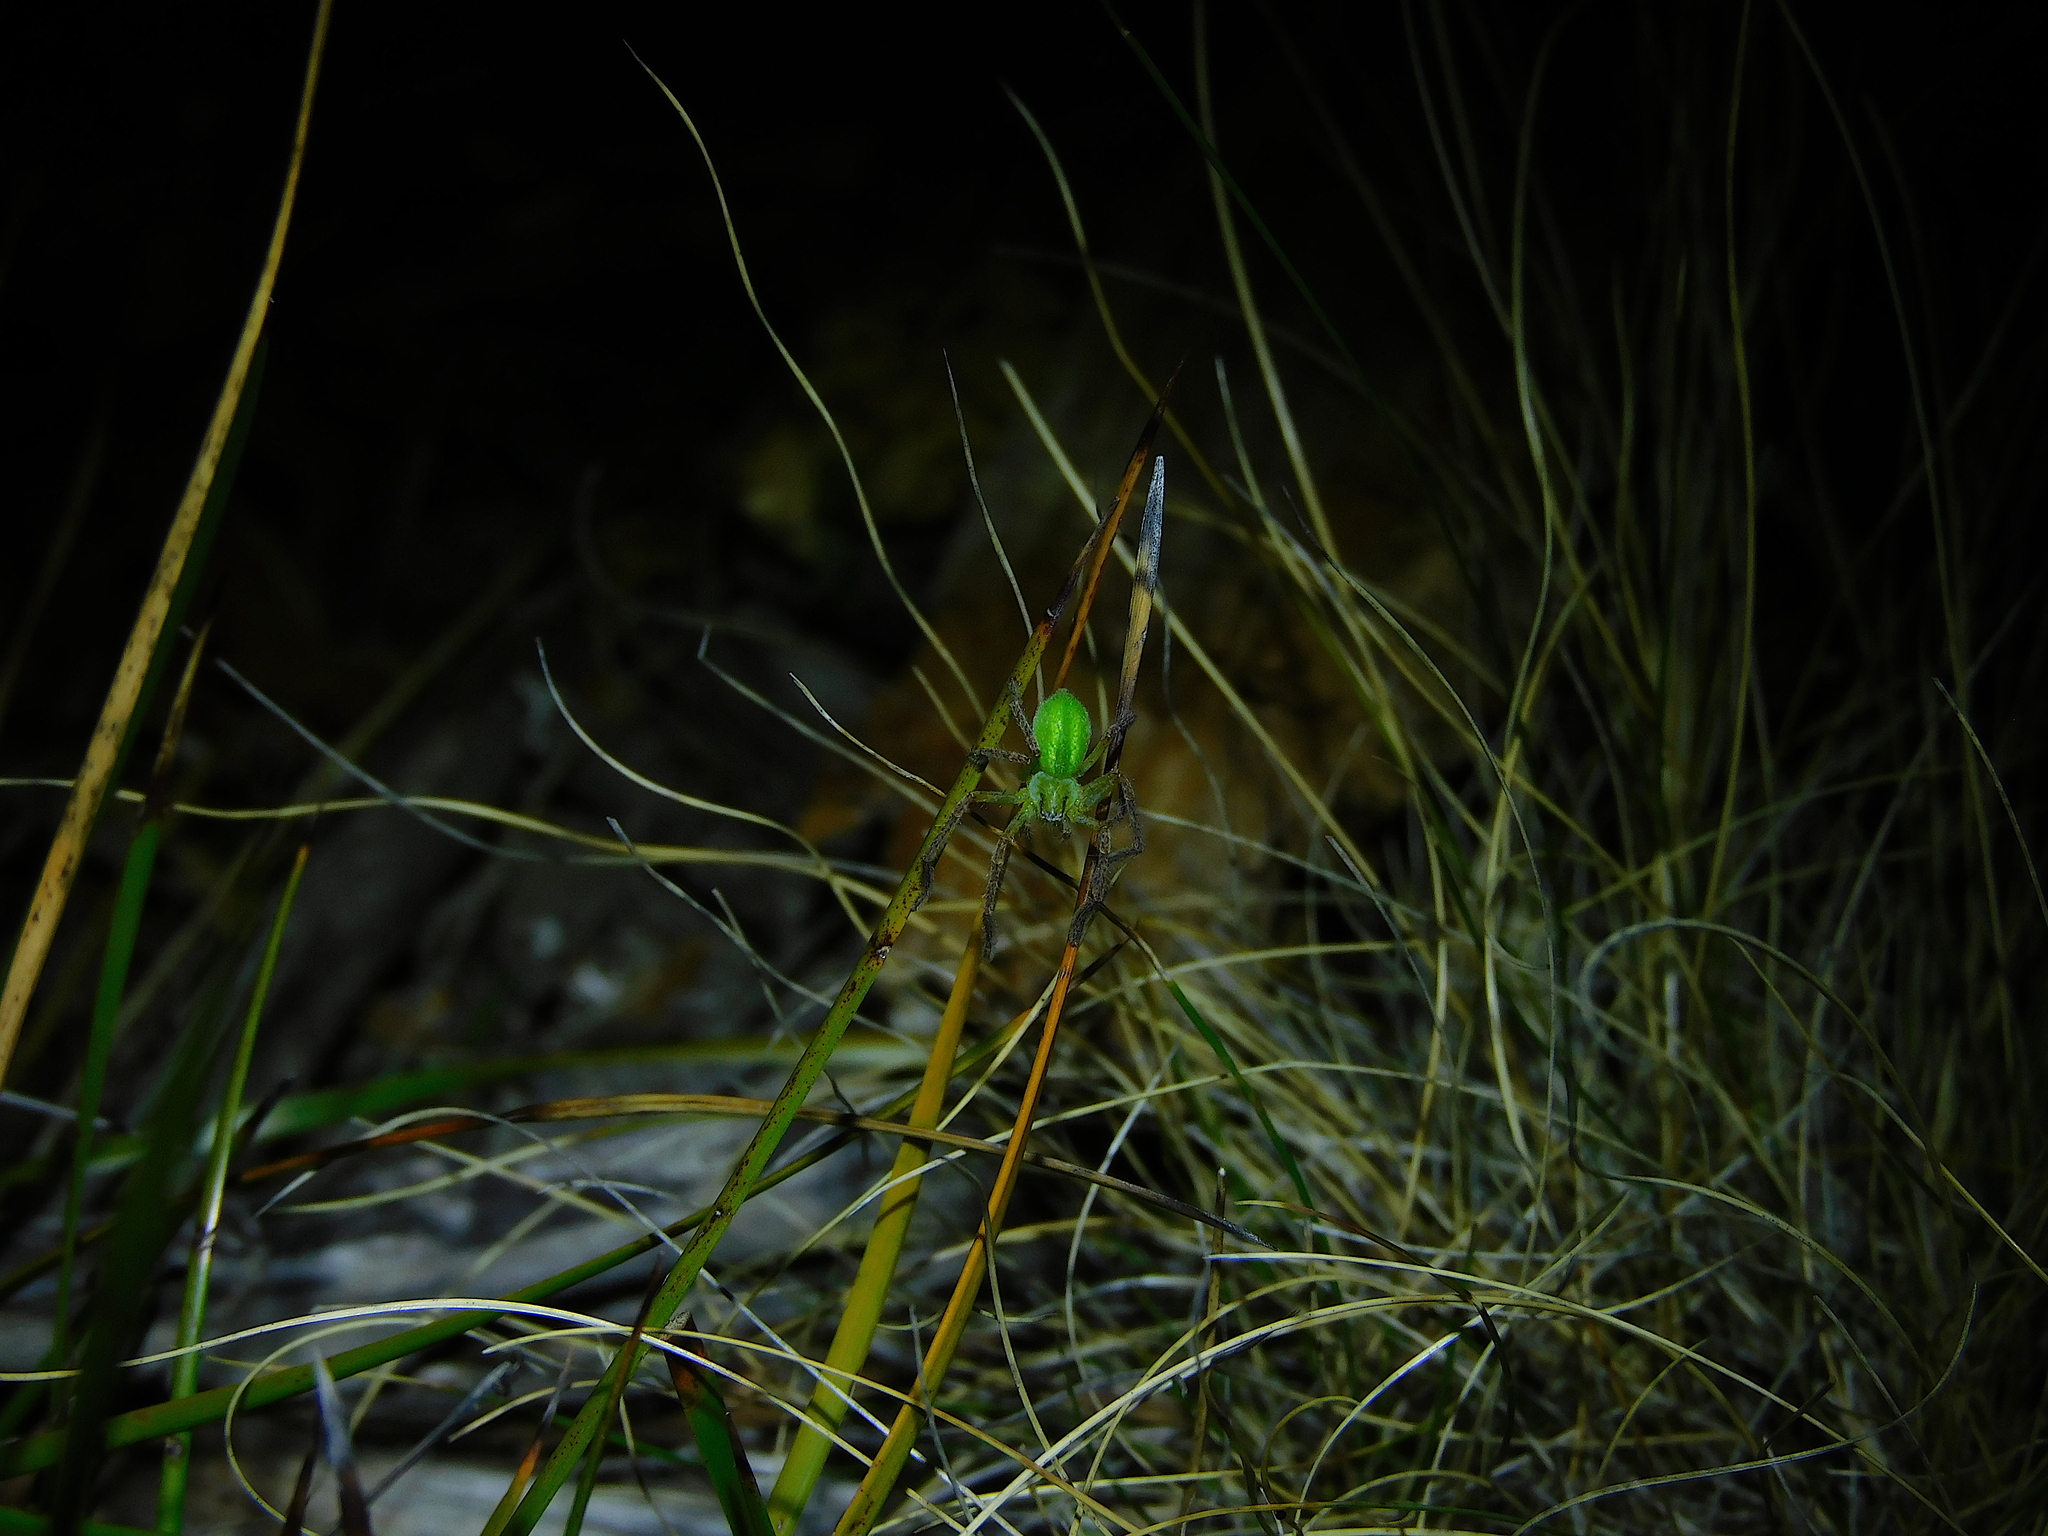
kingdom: Animalia
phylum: Arthropoda
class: Arachnida
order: Araneae
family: Sparassidae
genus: Neosparassus
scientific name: Neosparassus patellatus
